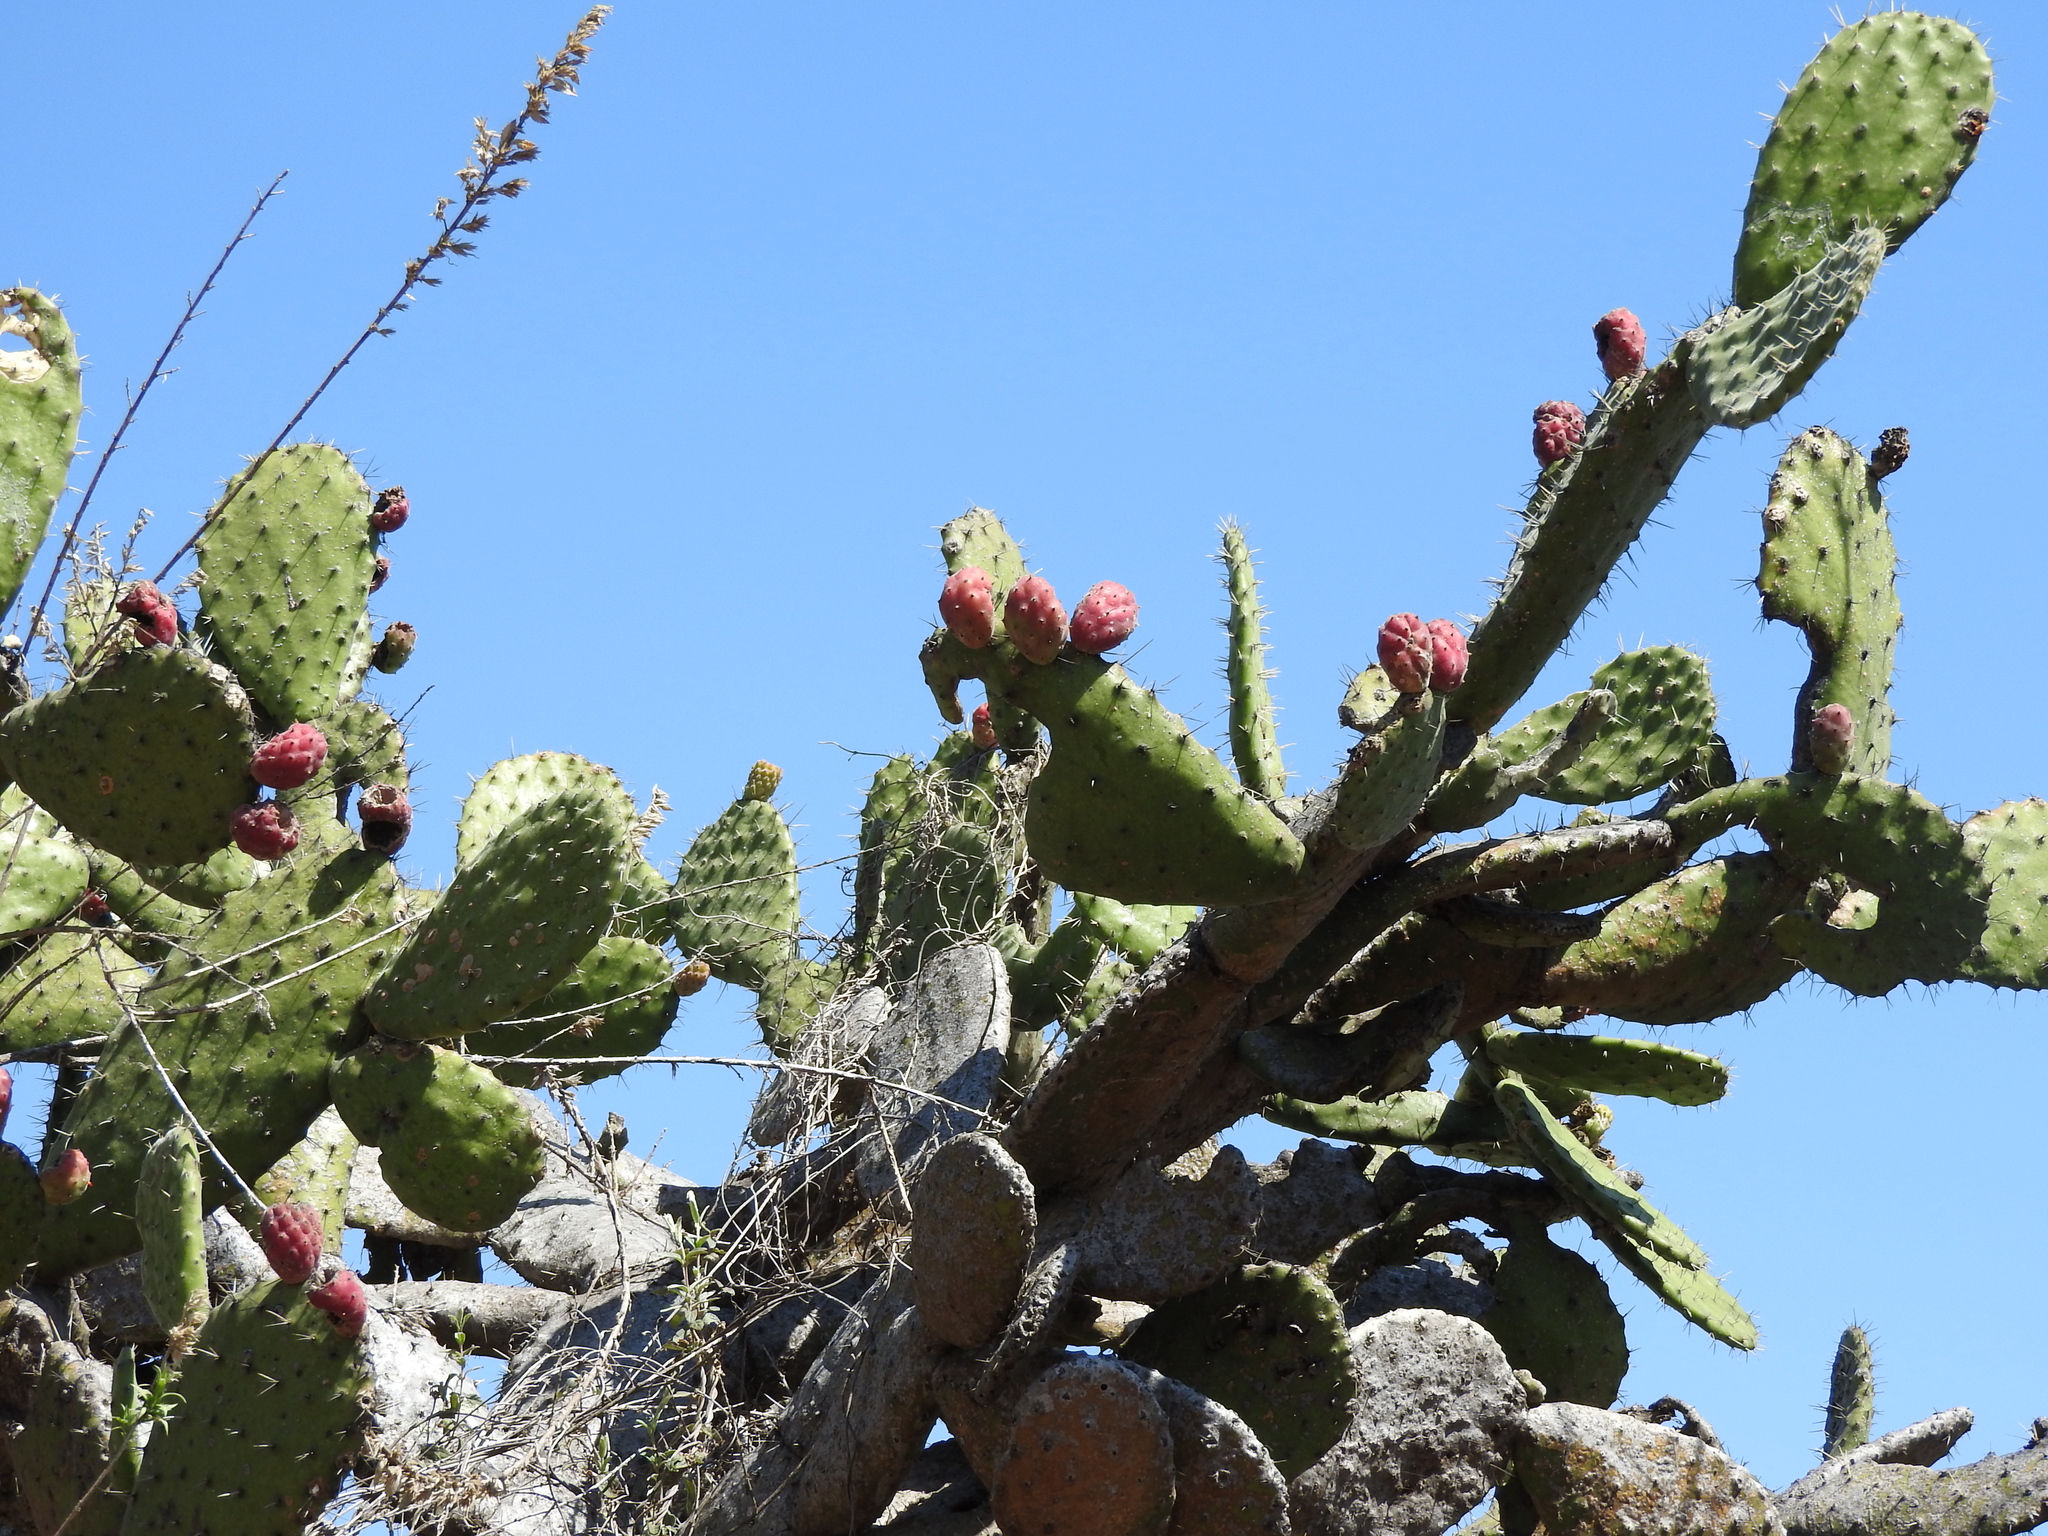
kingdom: Plantae
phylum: Tracheophyta
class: Magnoliopsida
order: Caryophyllales
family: Cactaceae
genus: Opuntia
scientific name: Opuntia jaliscana
